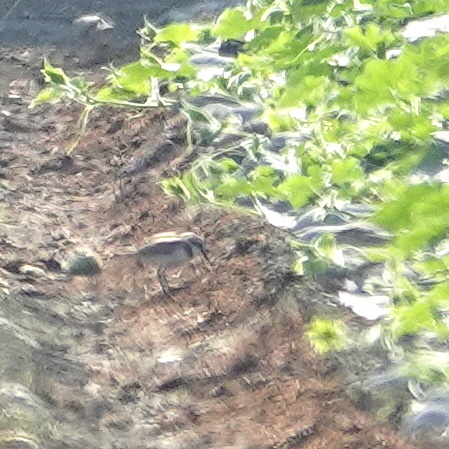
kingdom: Animalia
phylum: Chordata
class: Aves
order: Charadriiformes
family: Charadriidae
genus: Charadrius
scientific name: Charadrius alexandrinus
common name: Kentish plover
